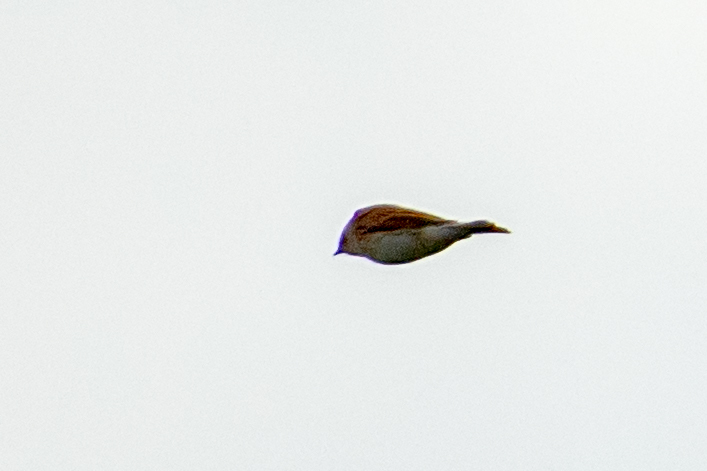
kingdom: Animalia
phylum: Chordata
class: Aves
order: Passeriformes
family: Emberizidae
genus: Emberiza
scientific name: Emberiza schoeniclus
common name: Reed bunting
